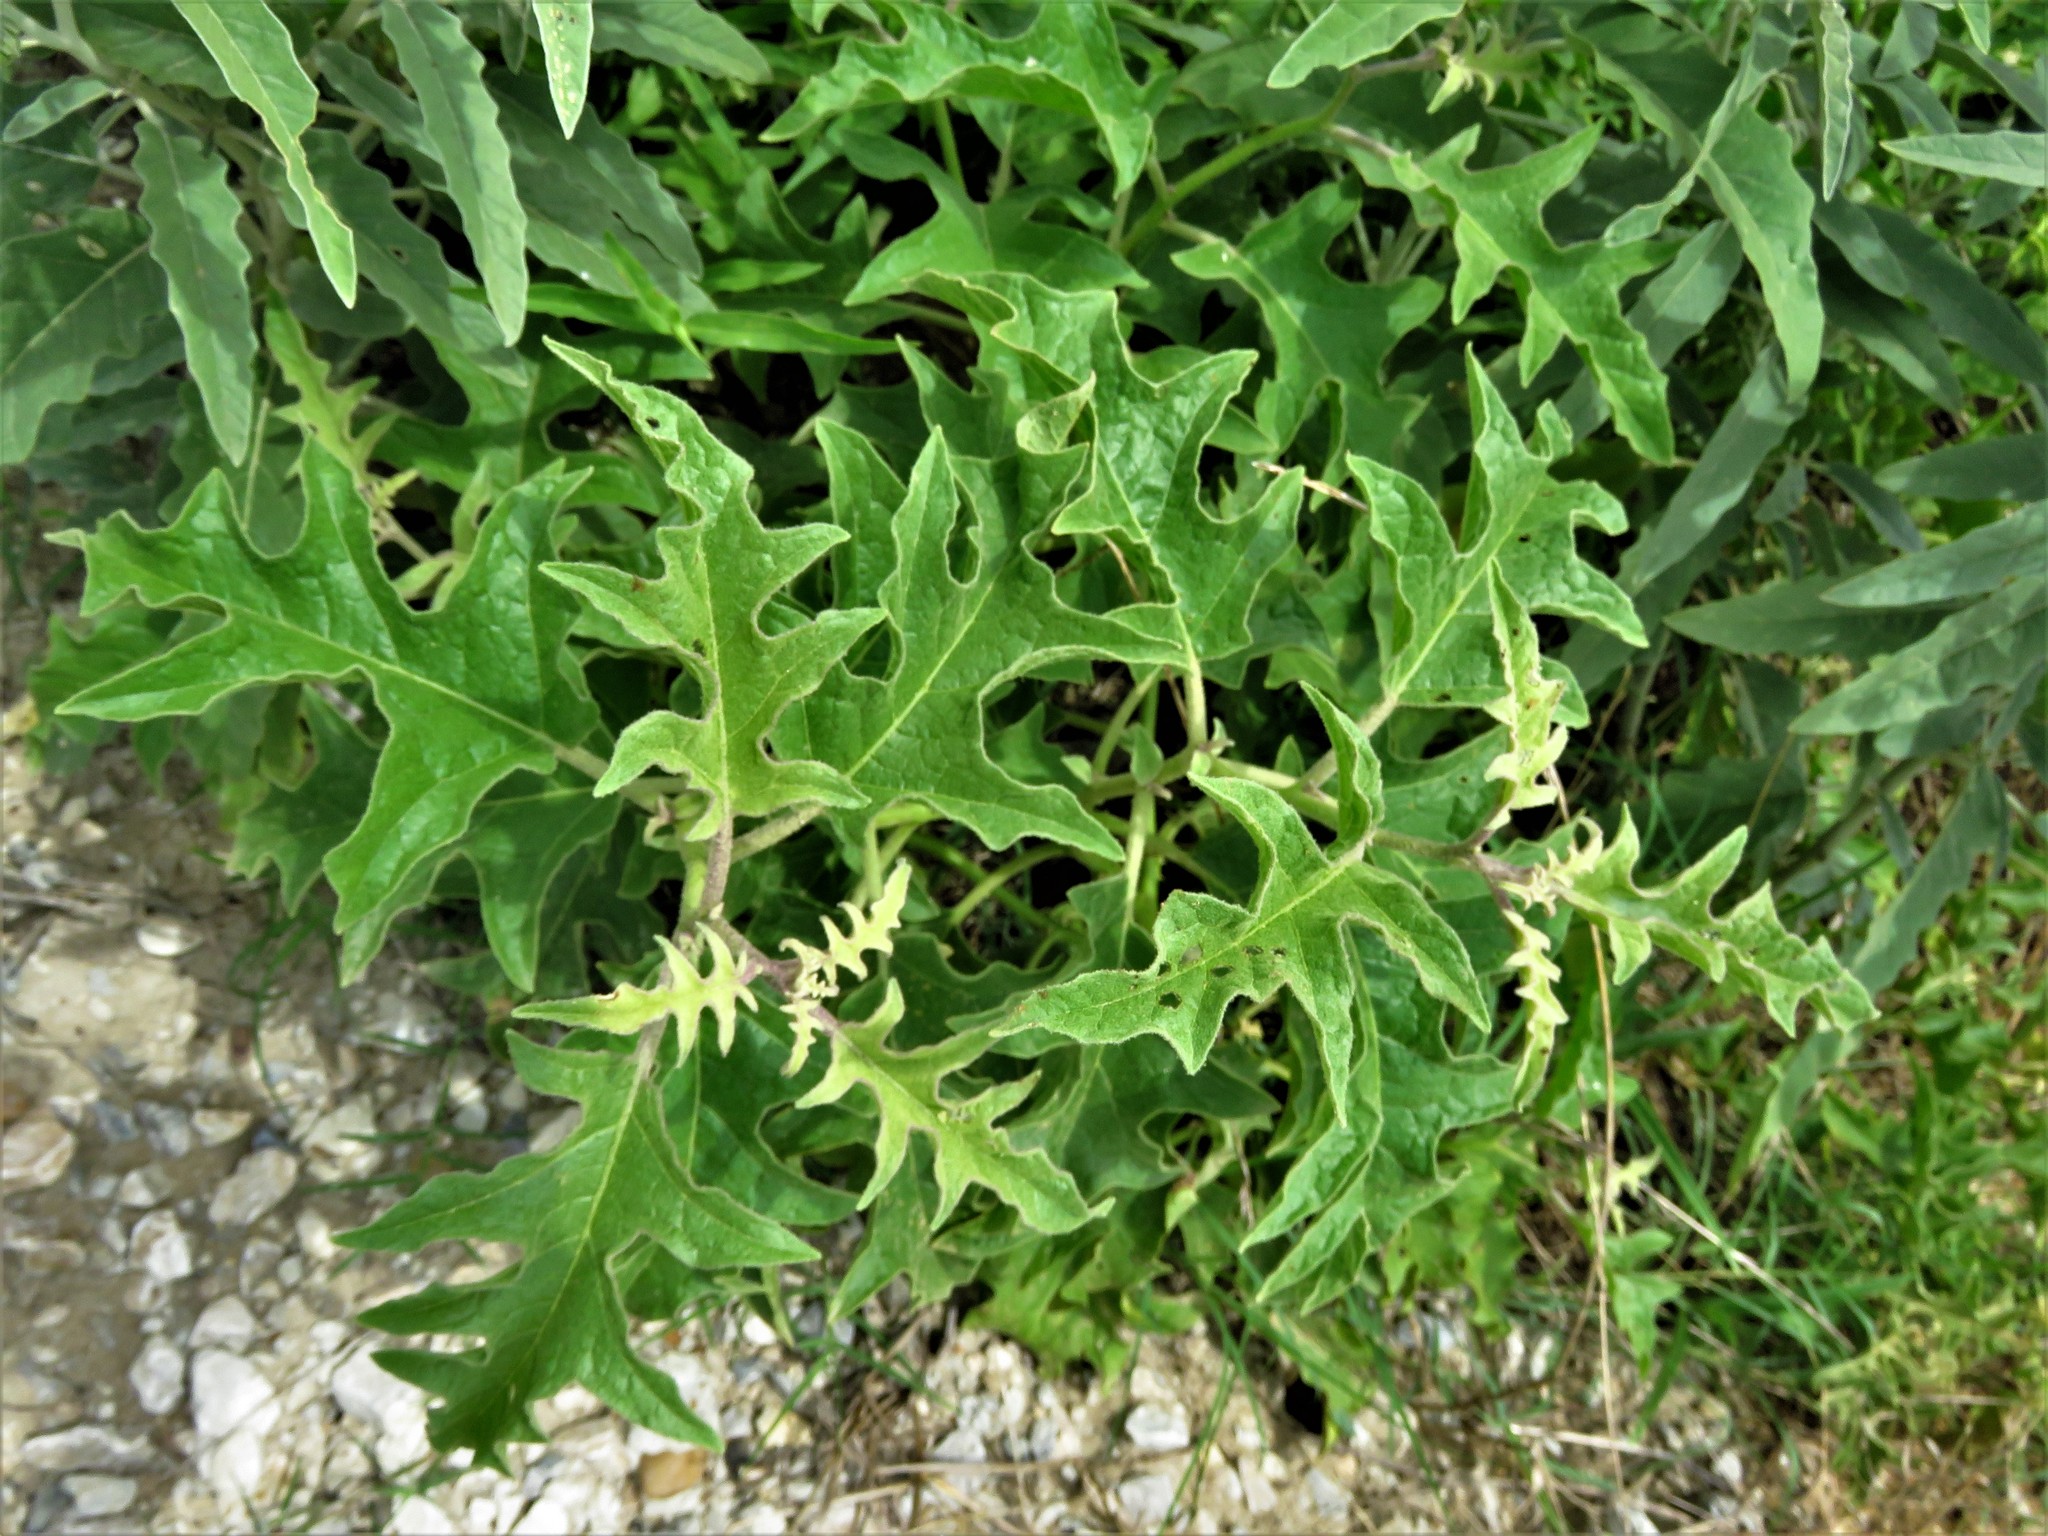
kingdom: Plantae
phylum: Tracheophyta
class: Magnoliopsida
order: Solanales
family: Solanaceae
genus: Solanum
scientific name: Solanum dimidiatum
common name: Carolina horse-nettle
